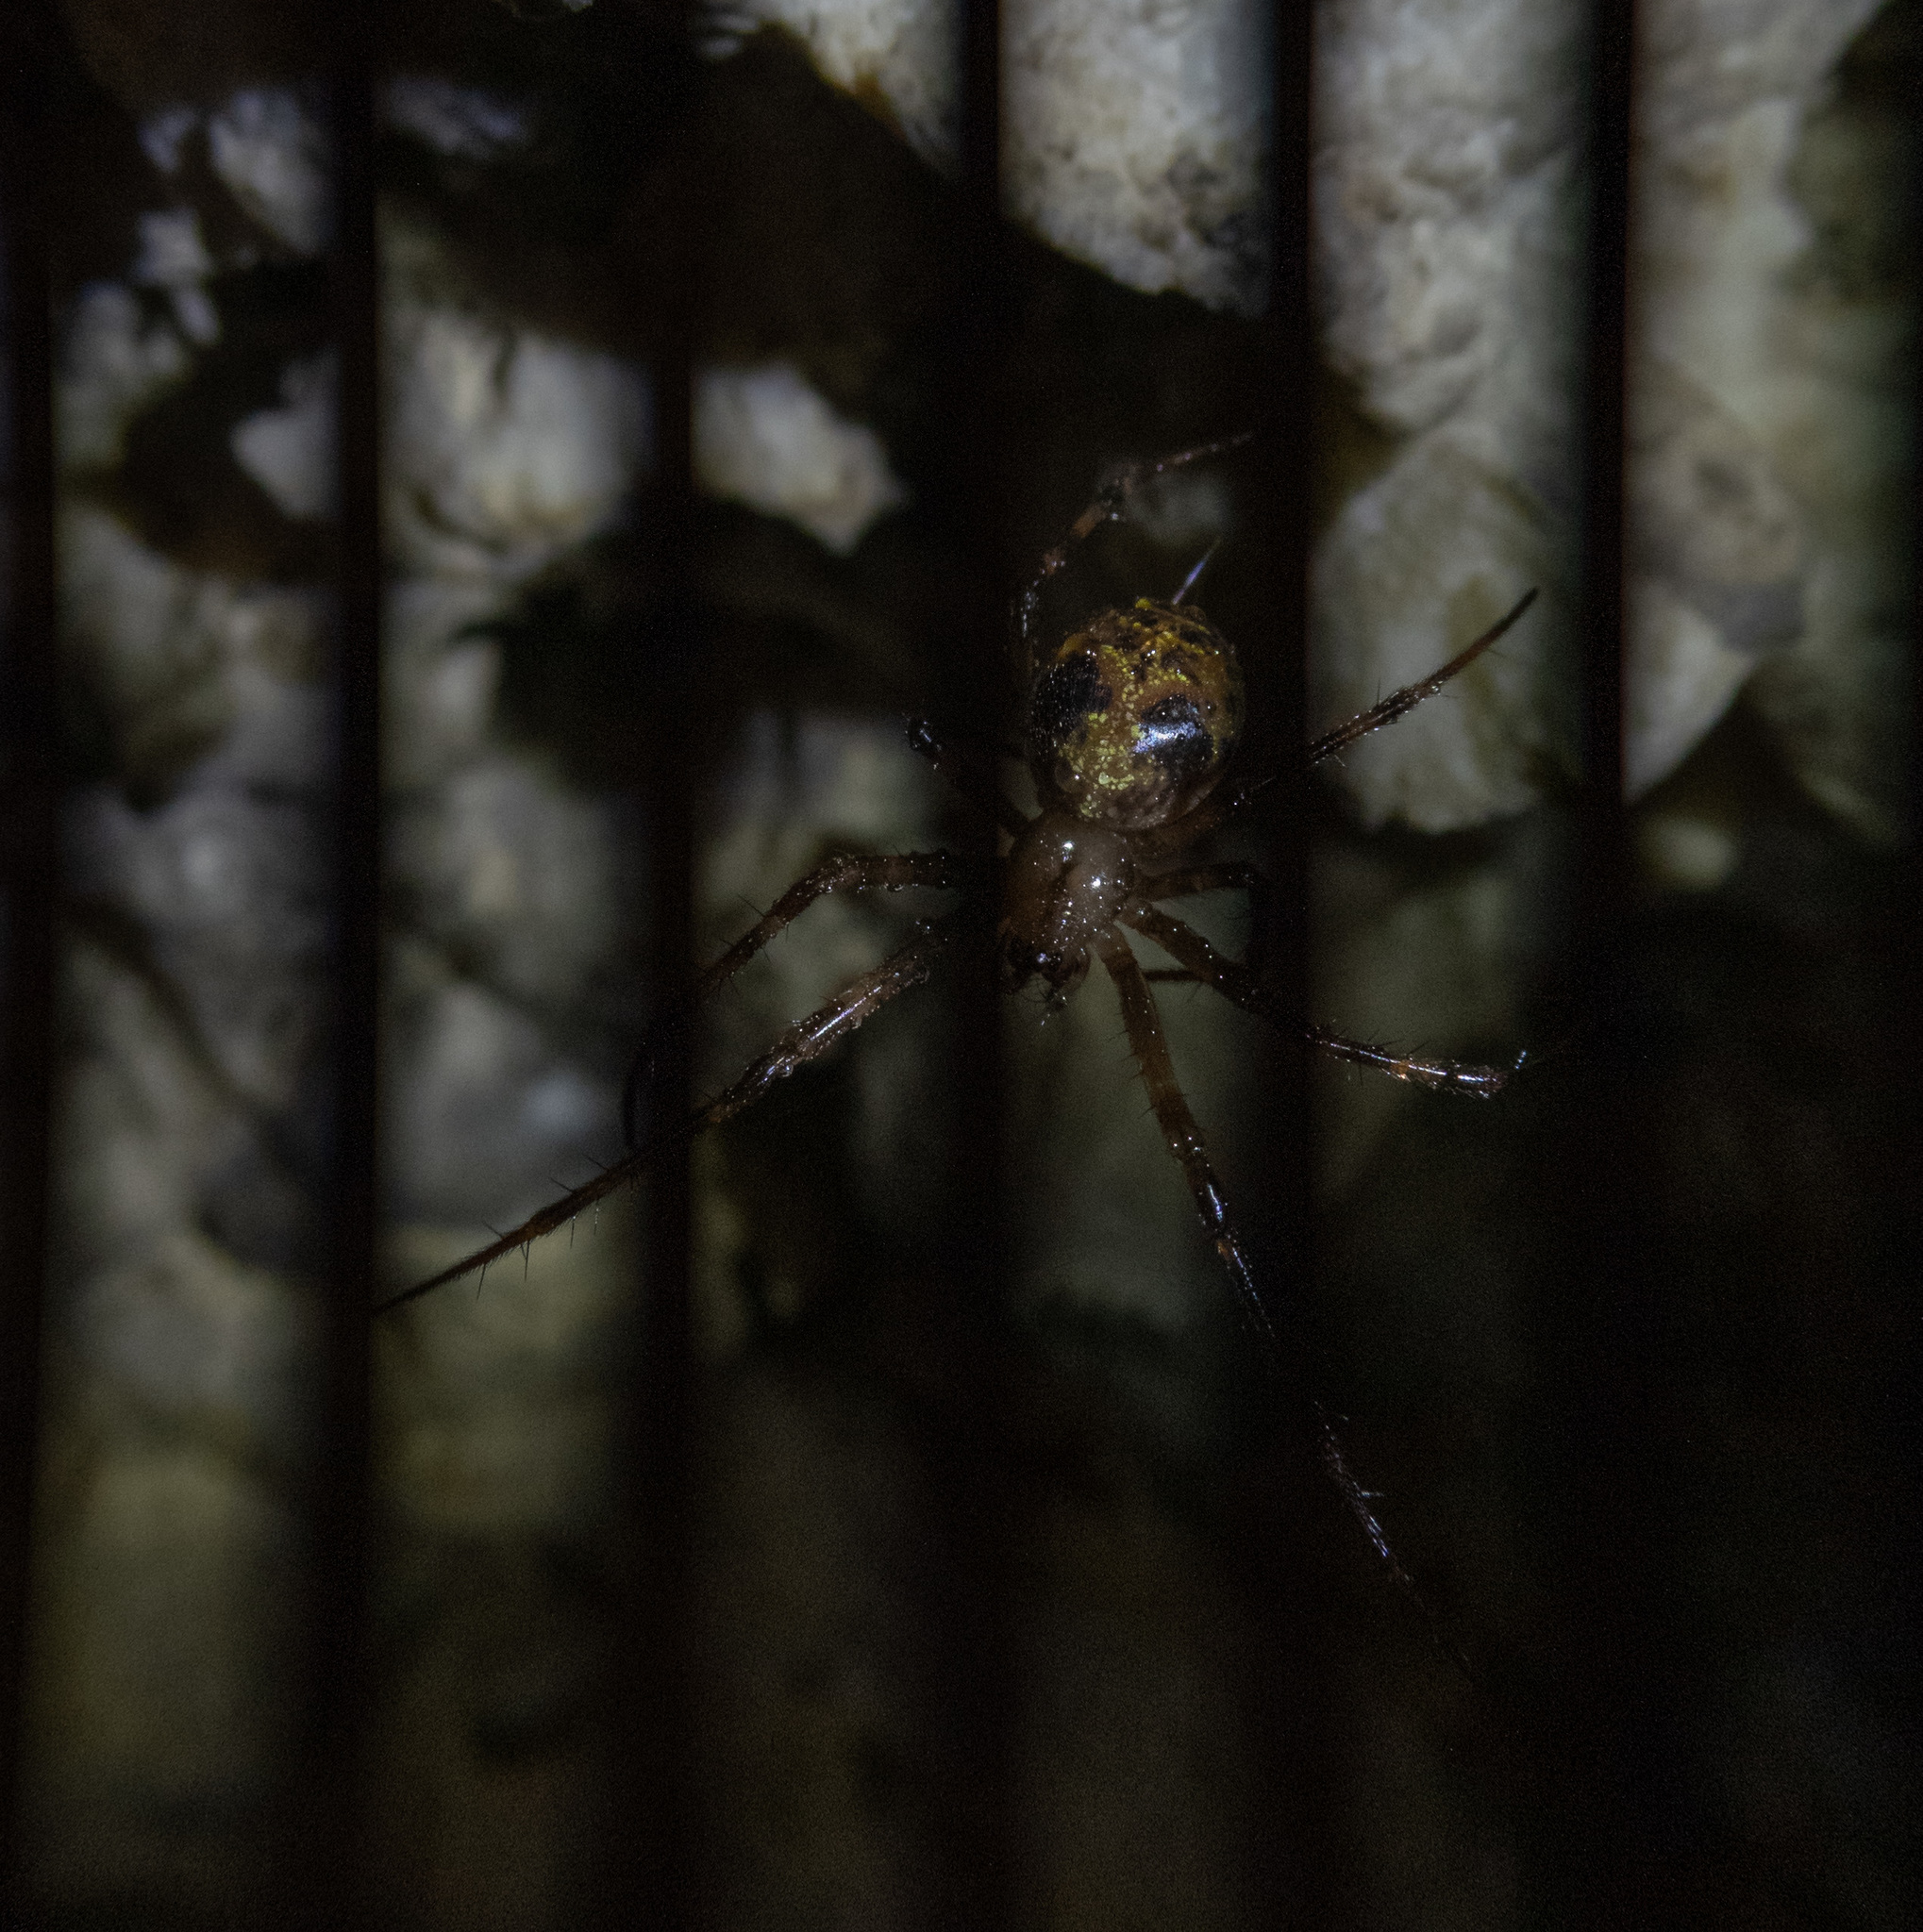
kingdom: Animalia
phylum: Arthropoda
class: Arachnida
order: Araneae
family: Tetragnathidae
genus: Meta
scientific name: Meta menardi
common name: Cave spider
